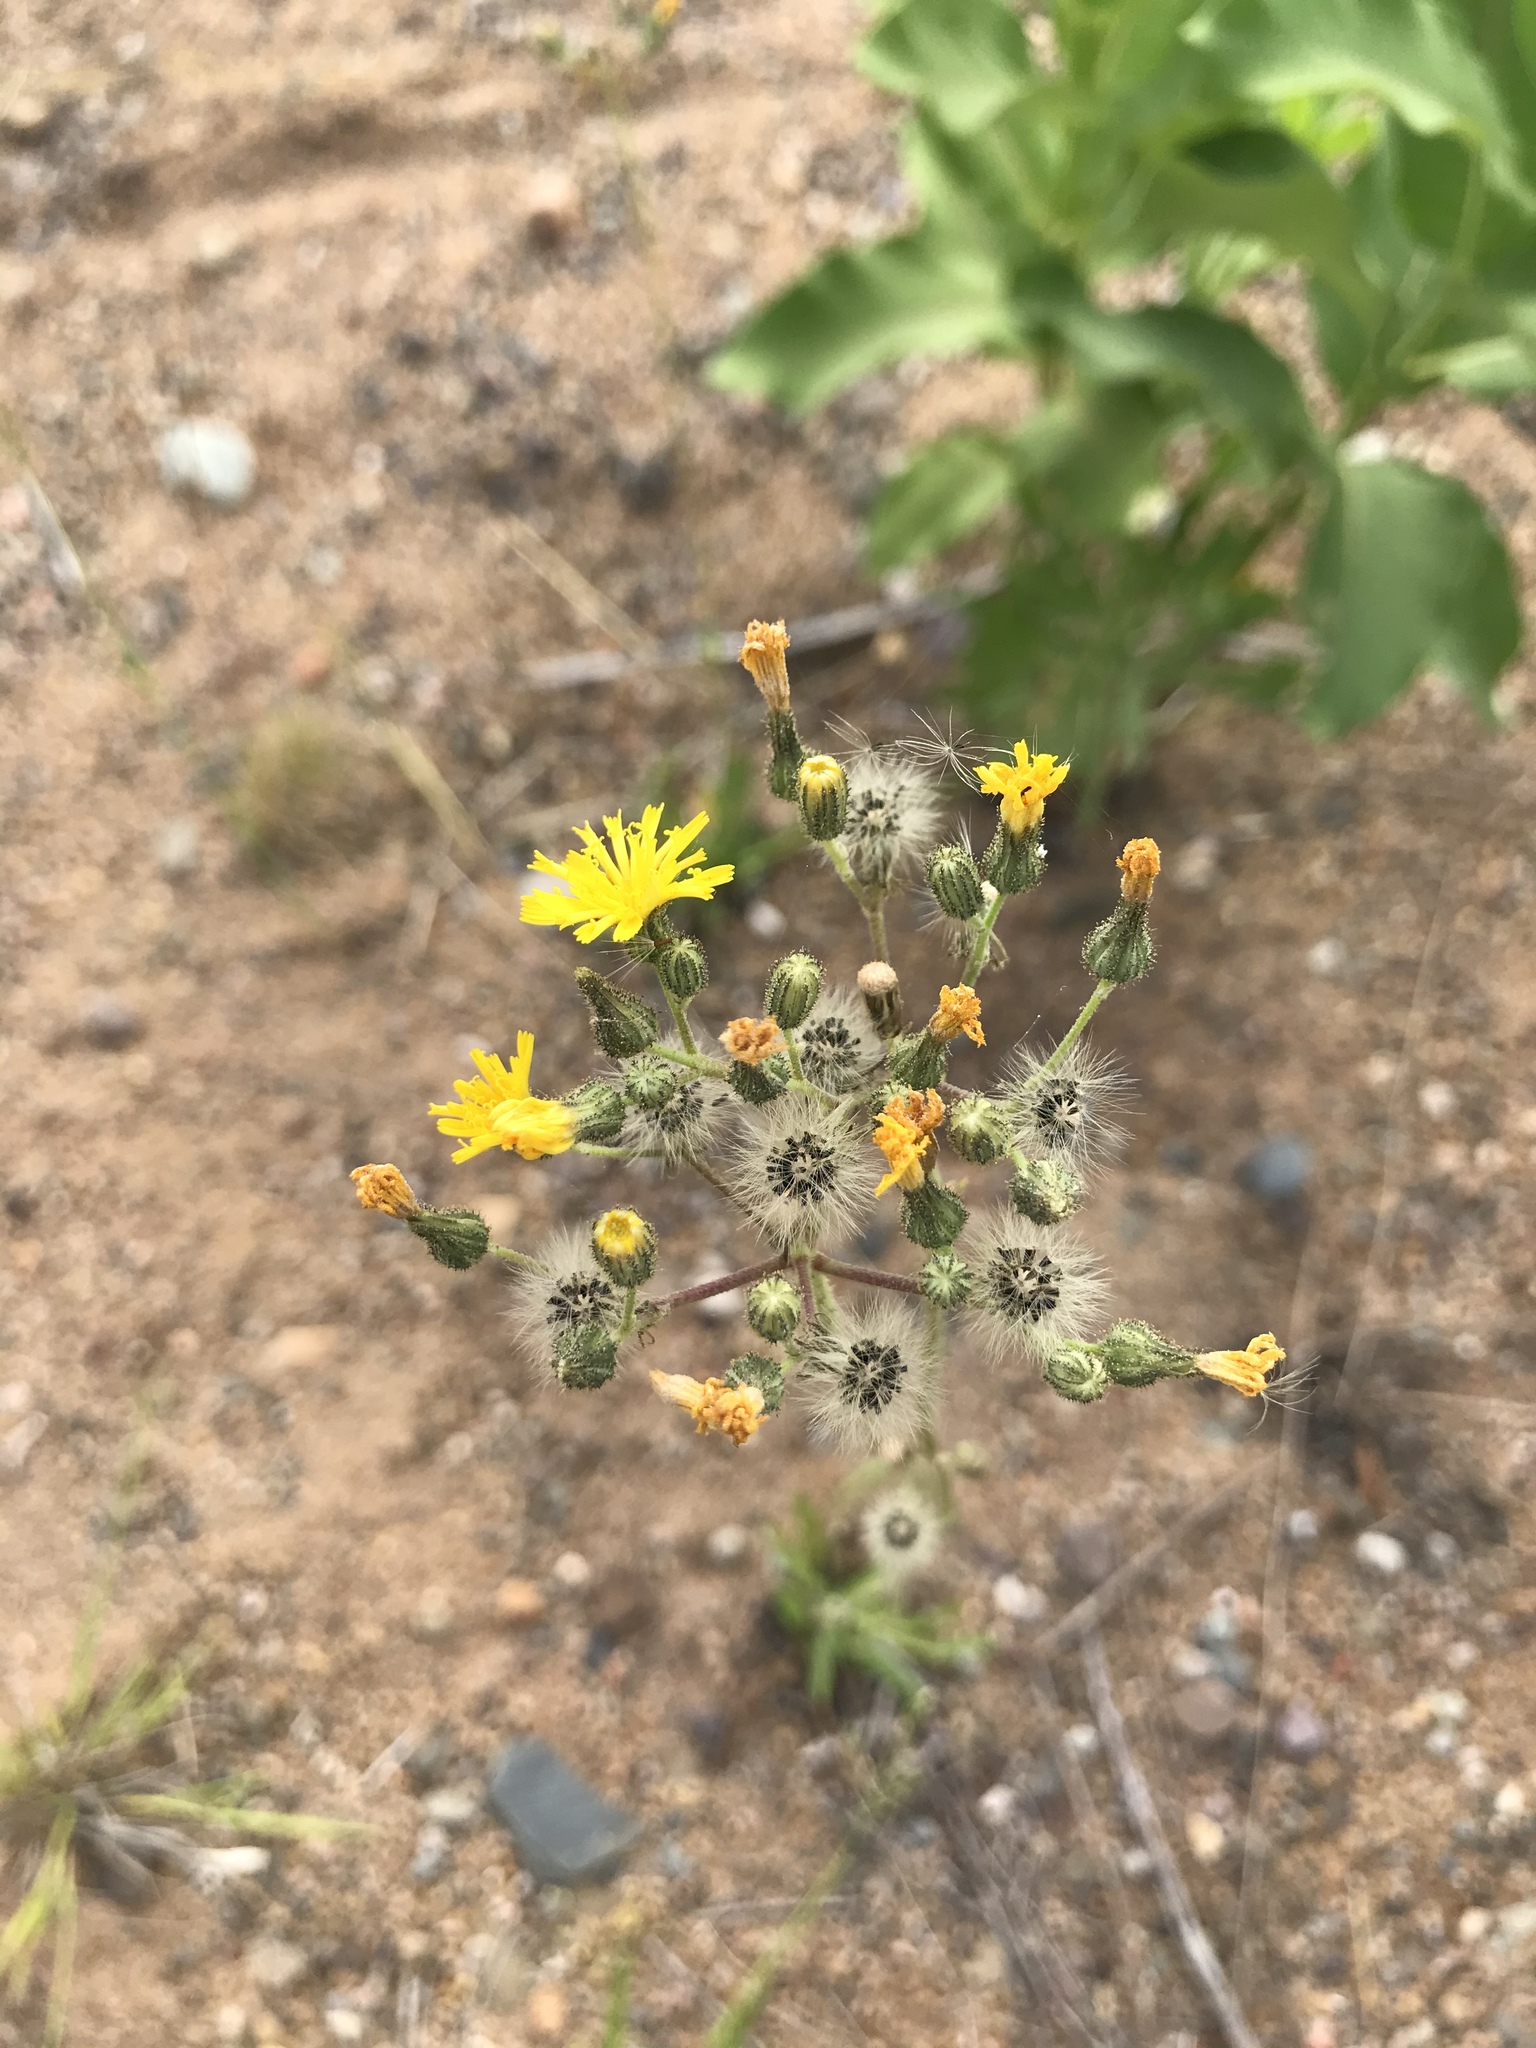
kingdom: Plantae
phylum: Tracheophyta
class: Magnoliopsida
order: Asterales
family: Asteraceae
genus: Pilosella
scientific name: Pilosella piloselloides
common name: Glaucous king-devil
